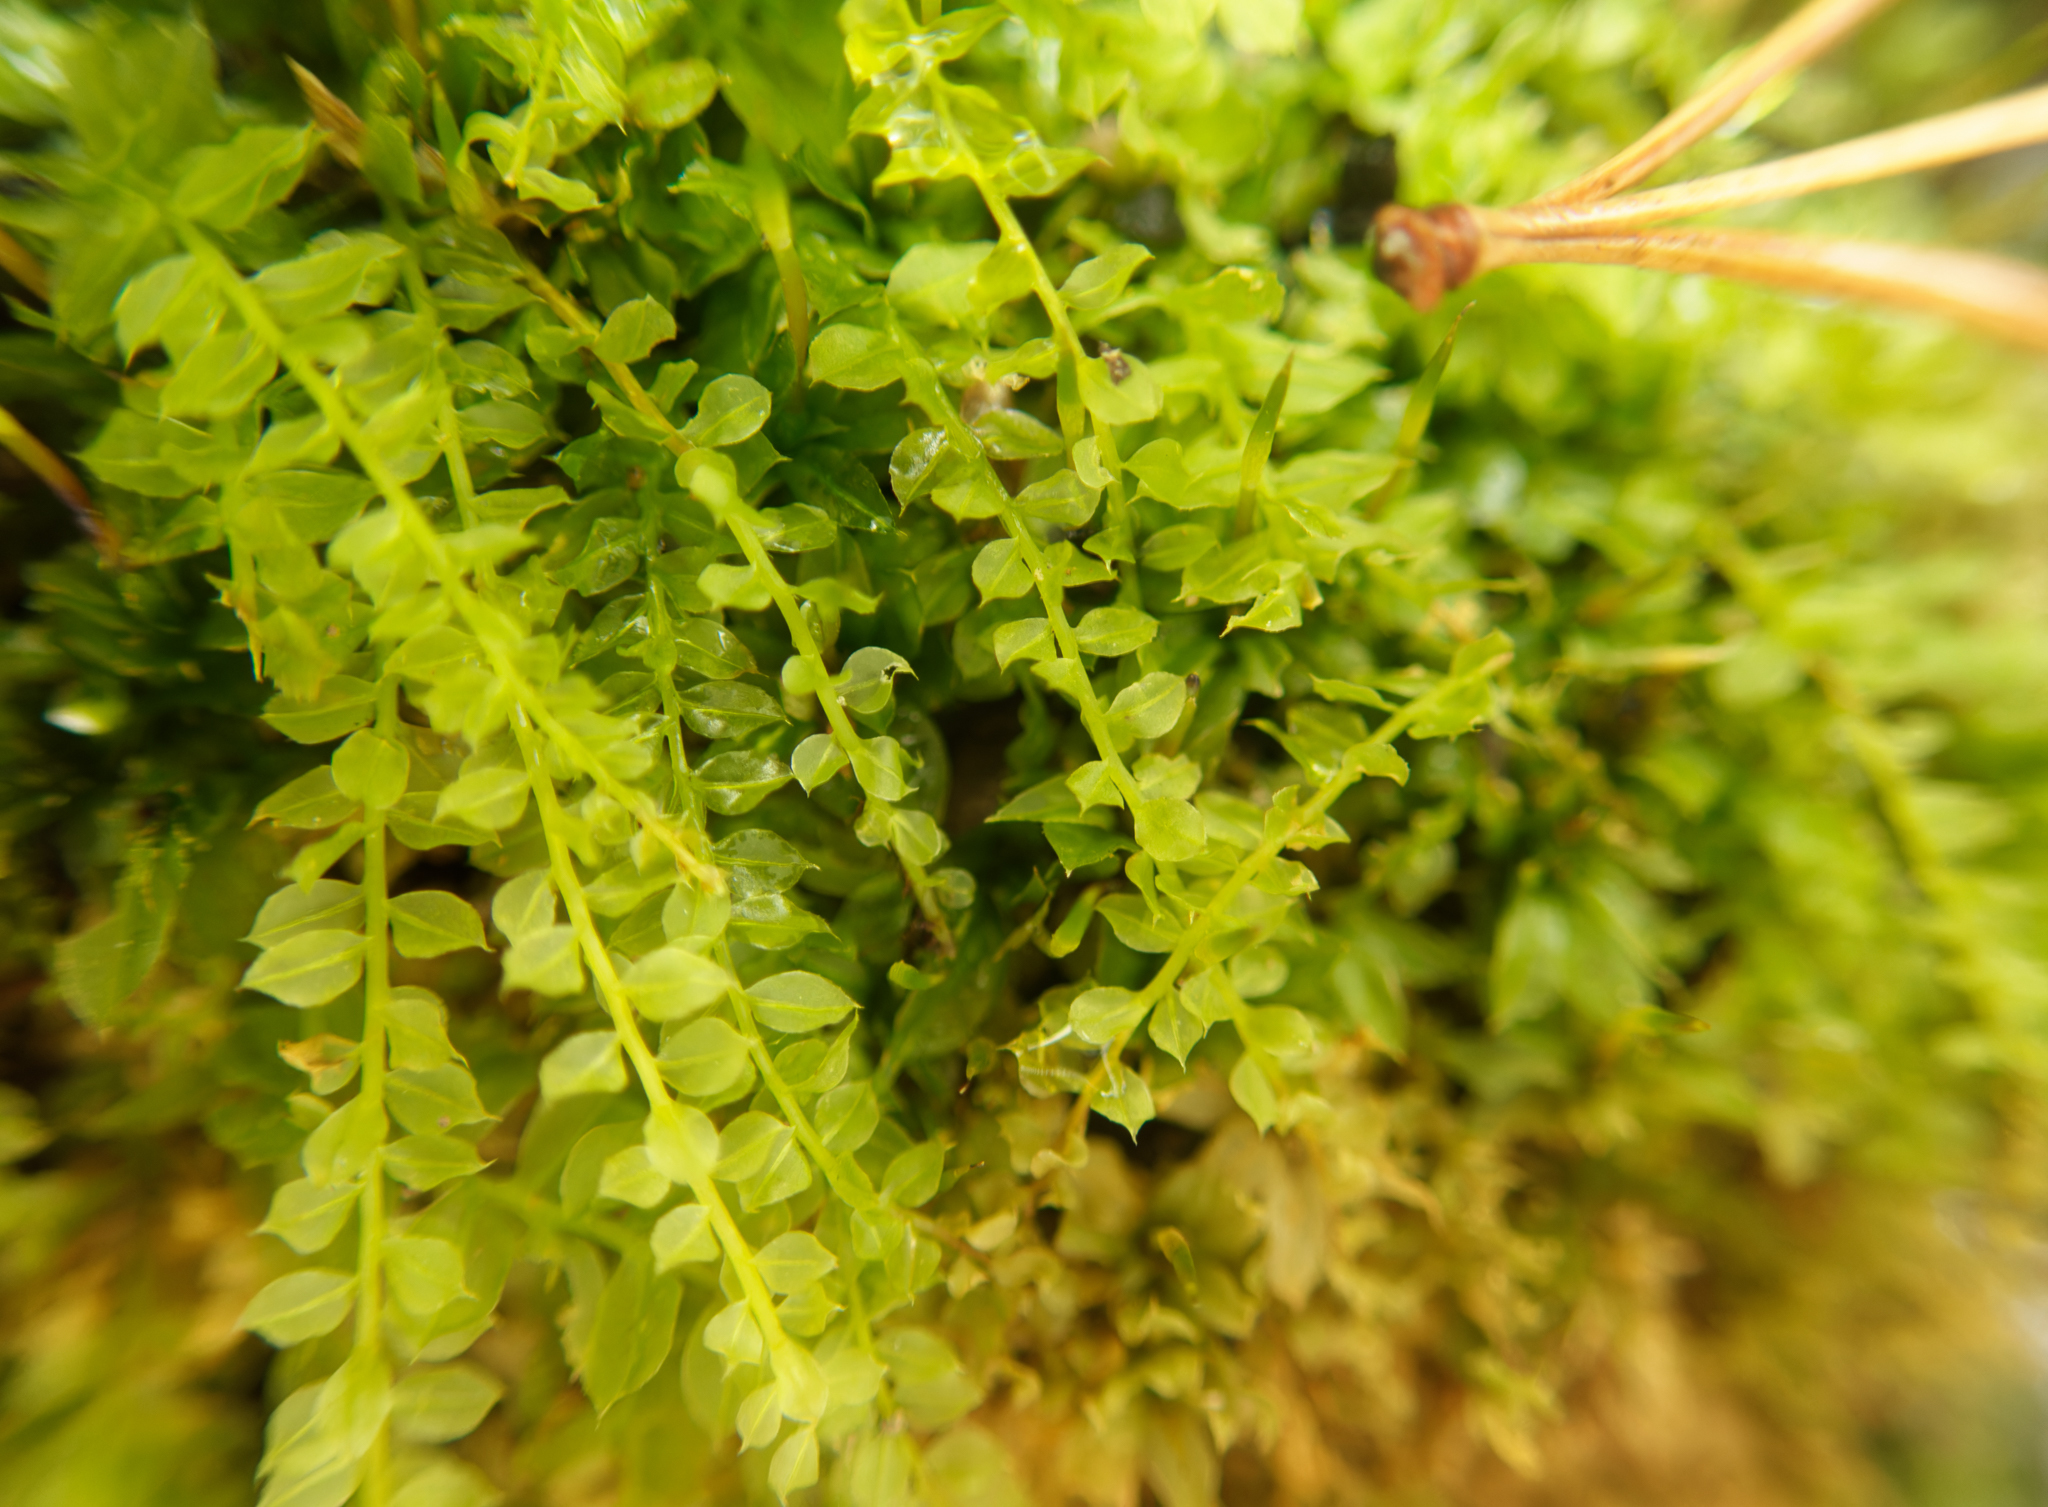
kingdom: Plantae
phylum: Bryophyta
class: Bryopsida
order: Bryales
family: Mniaceae
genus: Plagiomnium
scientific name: Plagiomnium cuspidatum
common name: Woodsy leafy moss
